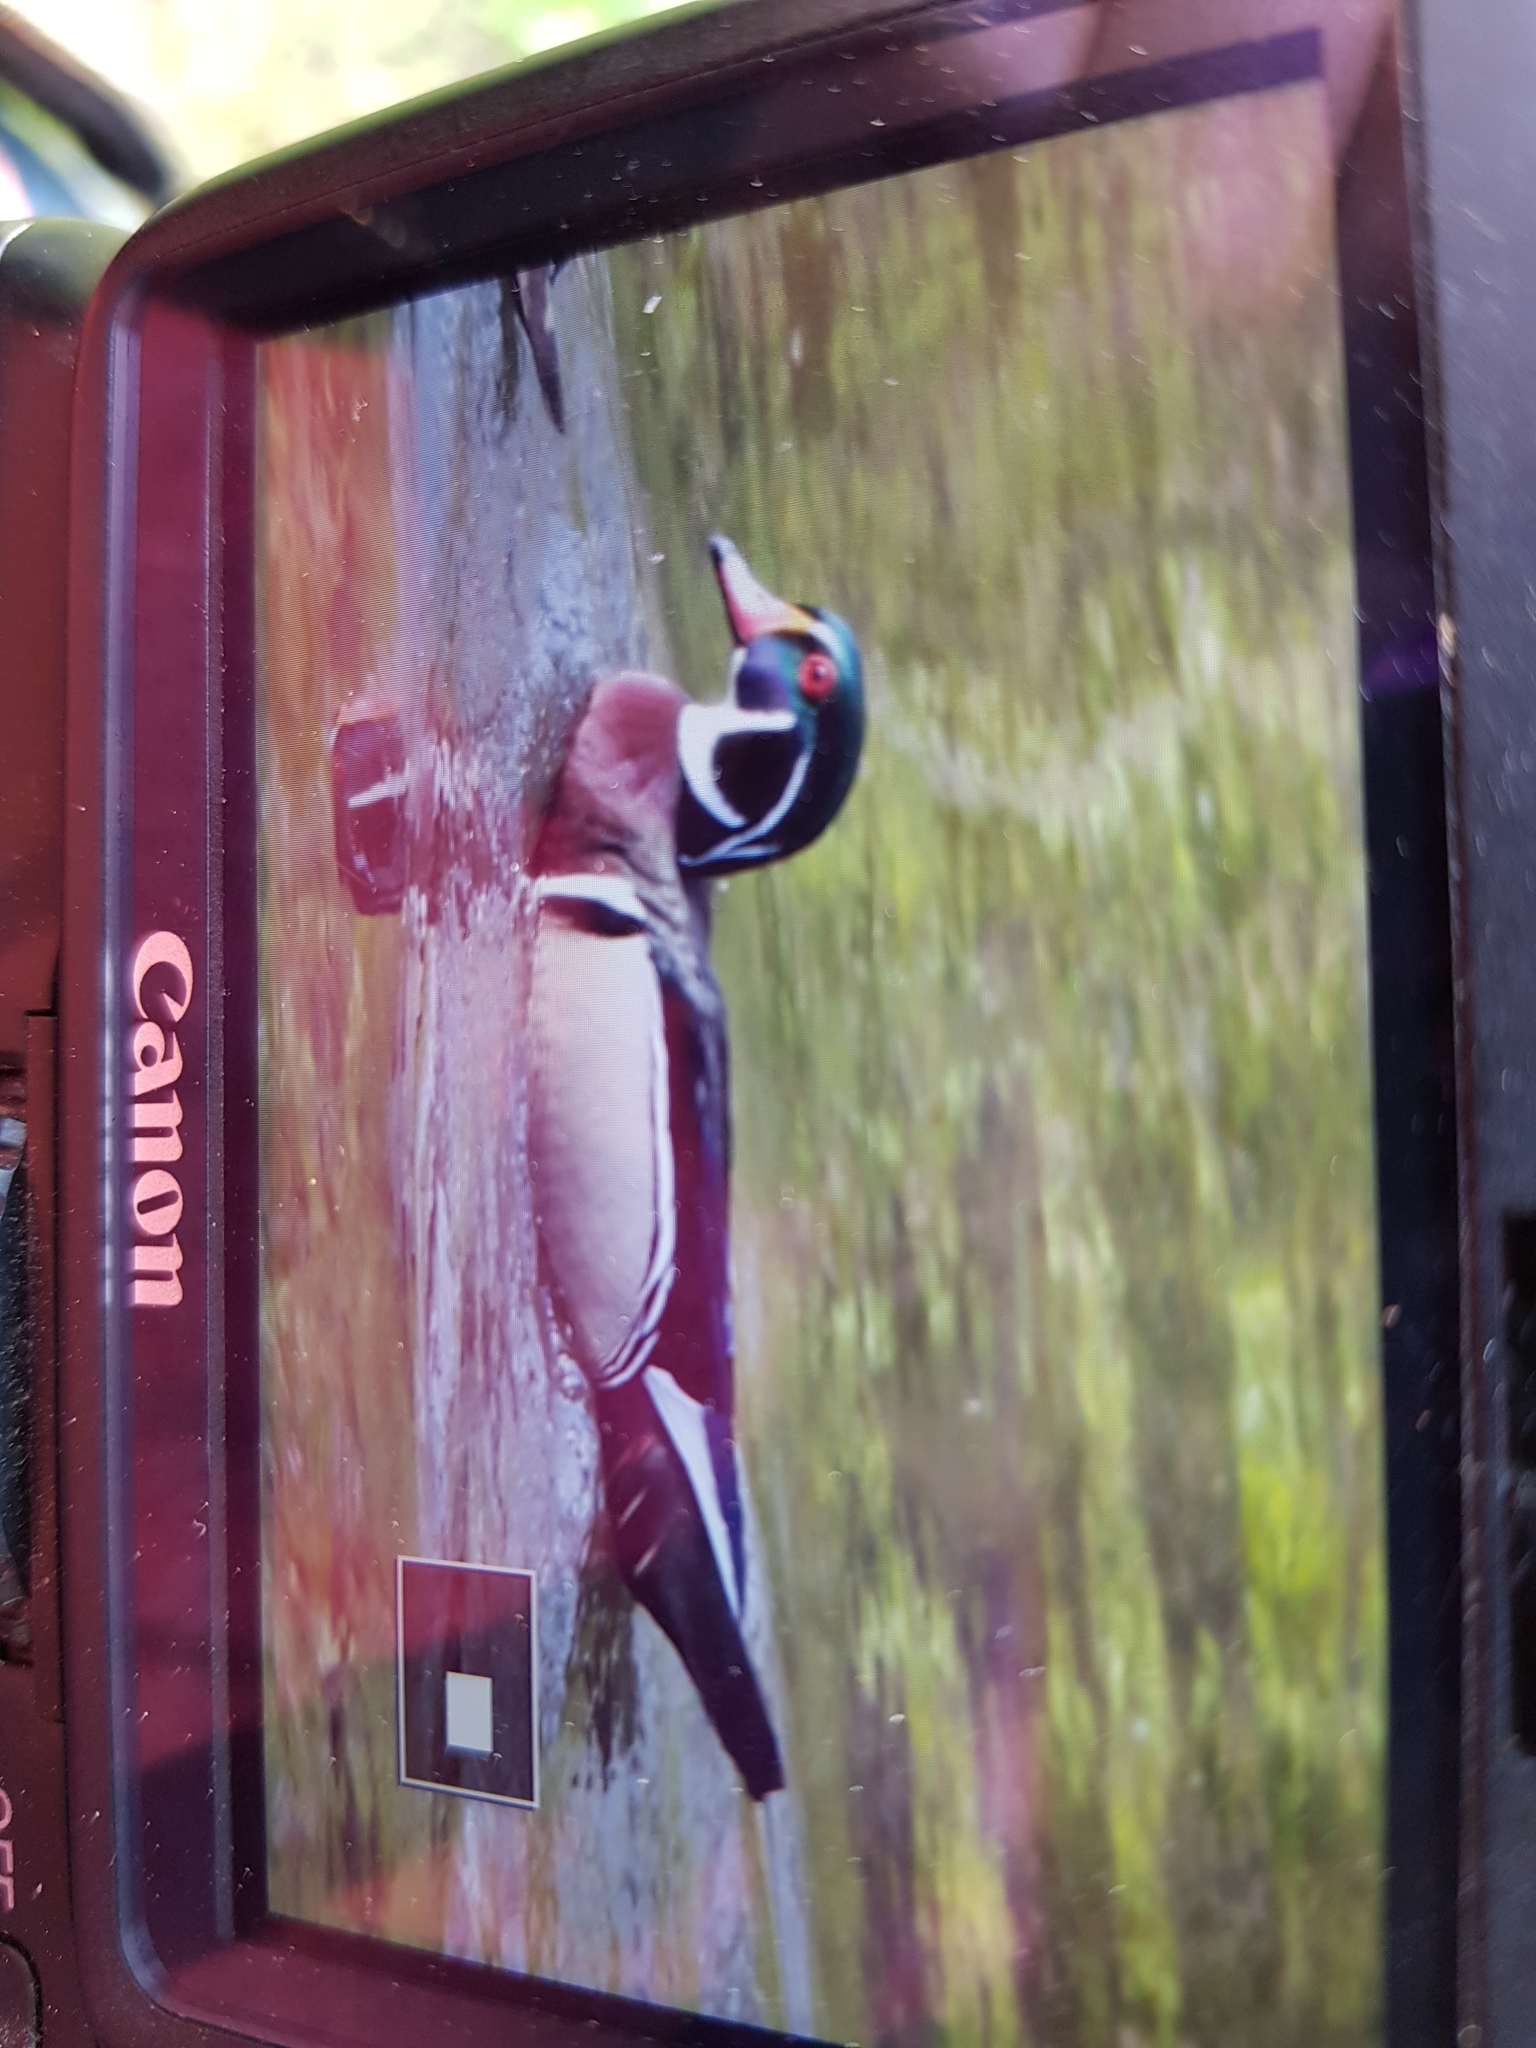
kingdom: Animalia
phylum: Chordata
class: Aves
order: Anseriformes
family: Anatidae
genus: Aix
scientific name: Aix sponsa
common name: Wood duck
